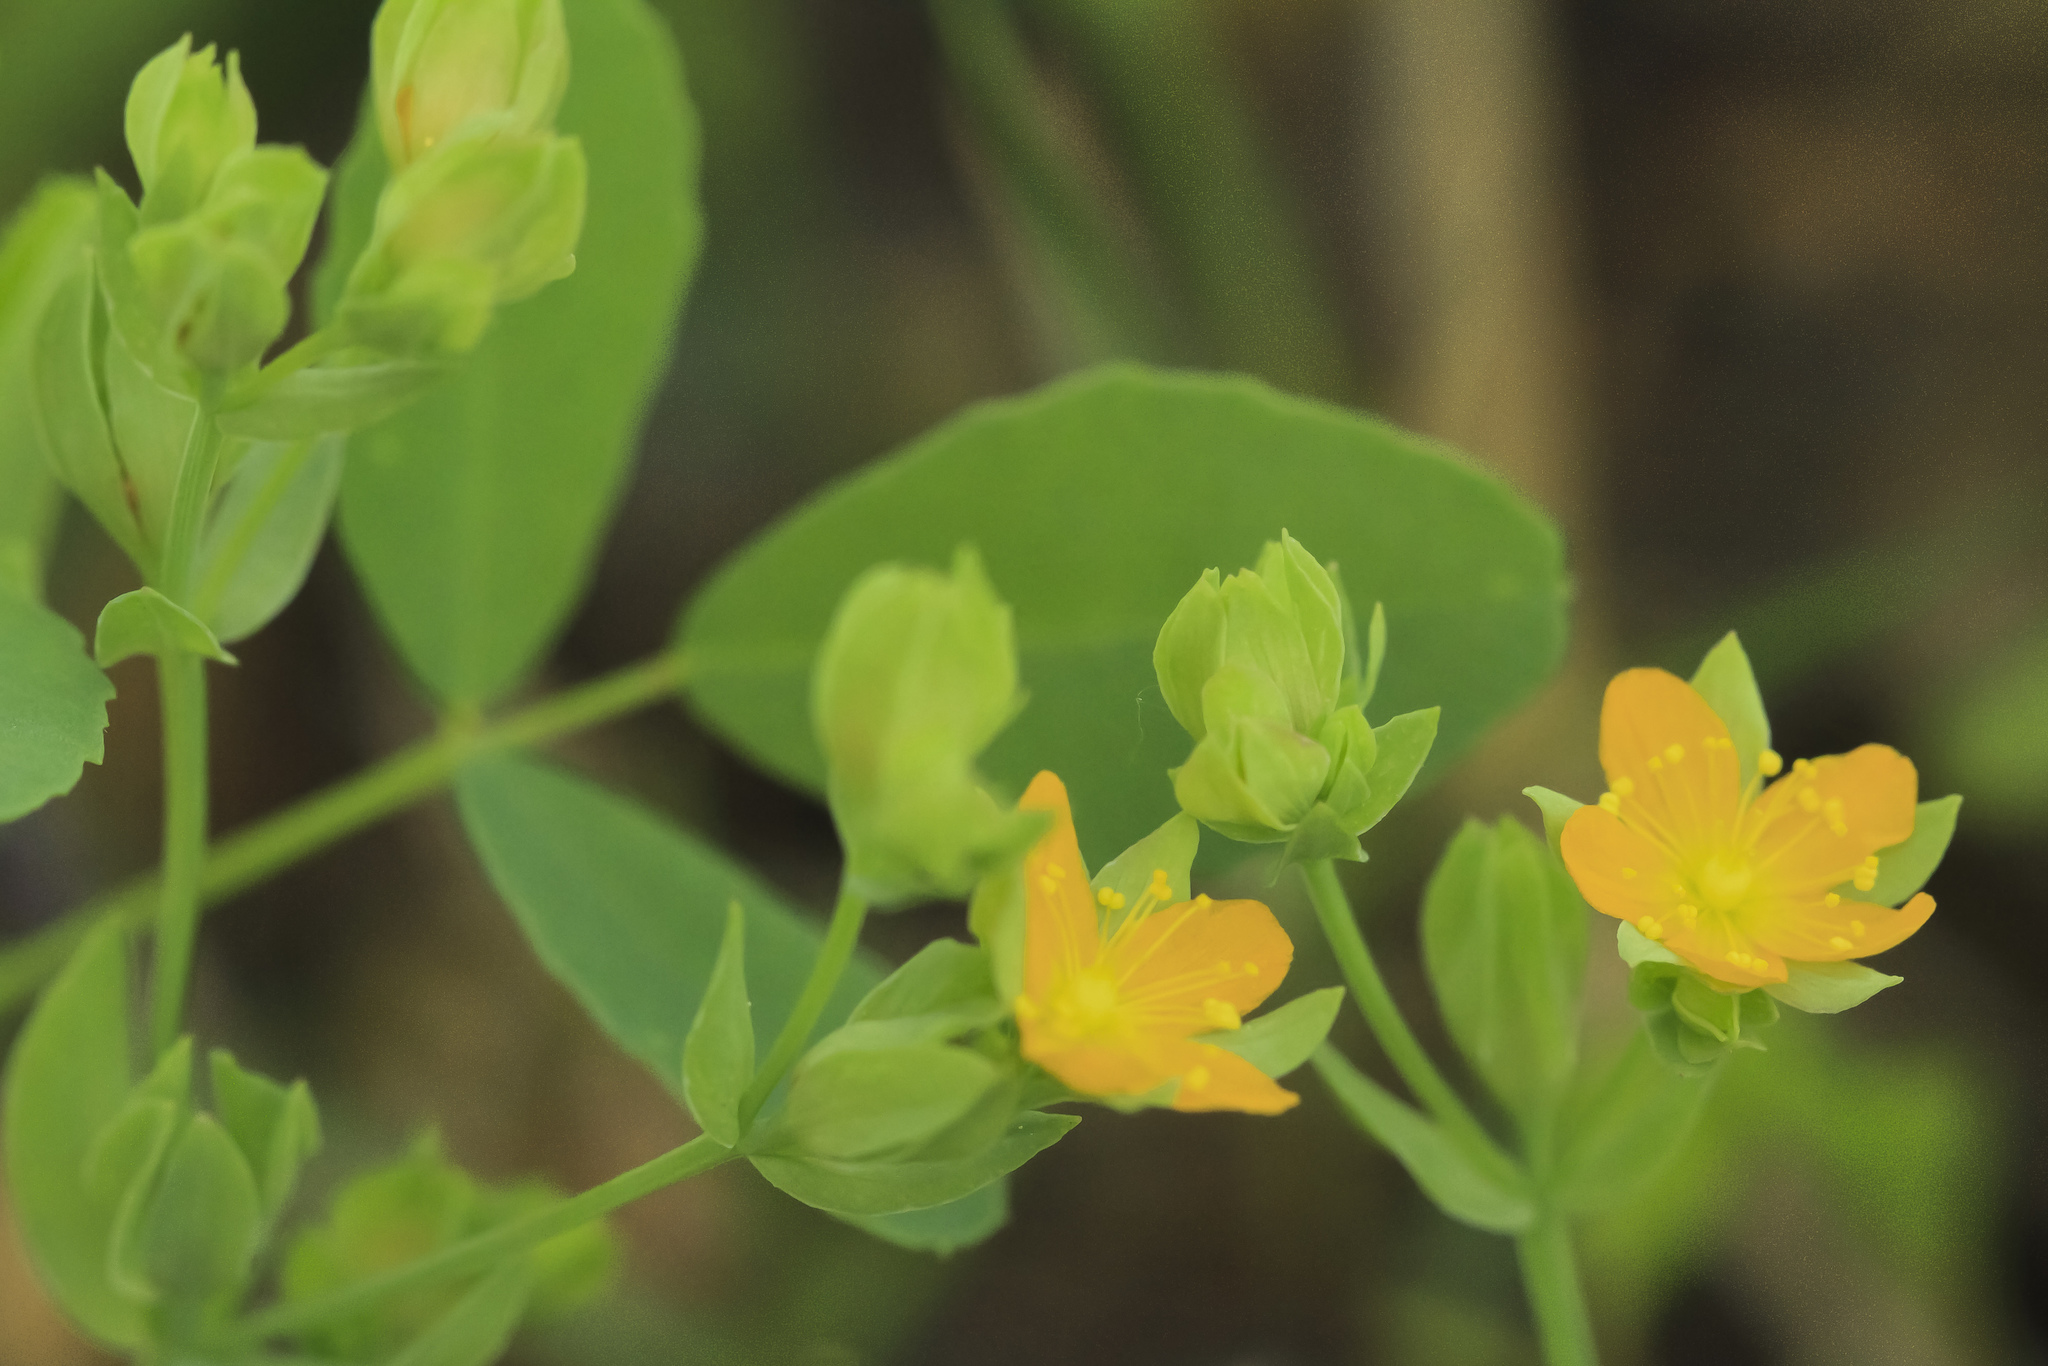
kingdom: Plantae
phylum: Tracheophyta
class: Magnoliopsida
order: Malpighiales
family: Hypericaceae
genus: Hypericum
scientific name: Hypericum anagalloides
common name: Bog st. john's-wort
